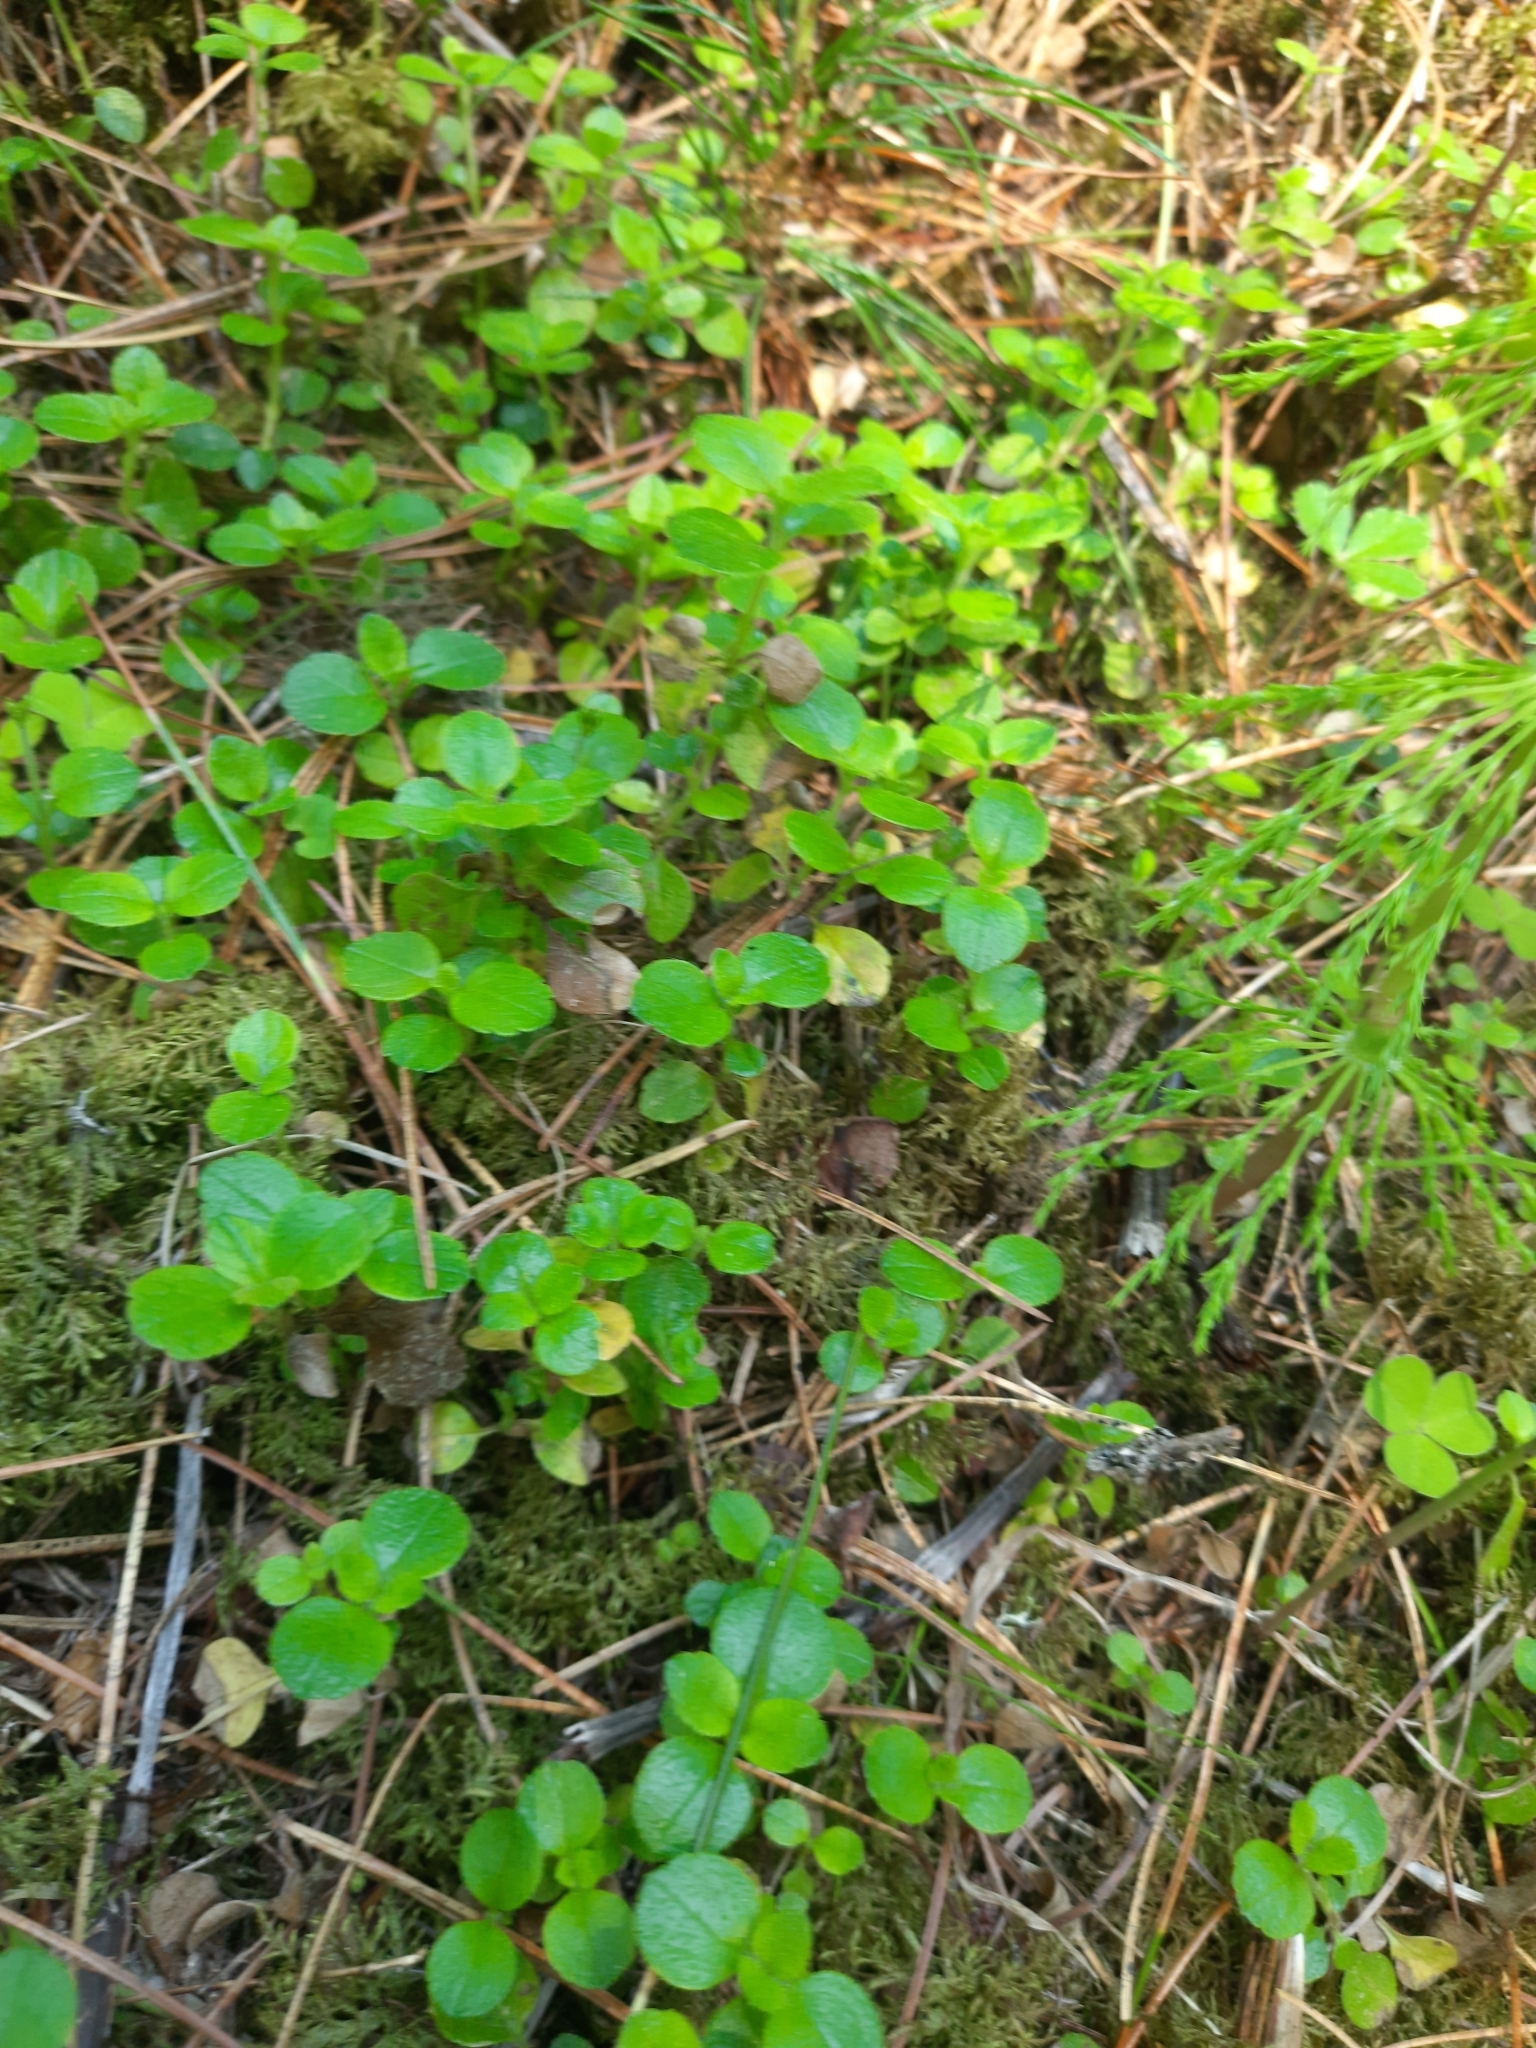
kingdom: Plantae
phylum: Tracheophyta
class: Magnoliopsida
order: Dipsacales
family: Caprifoliaceae
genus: Linnaea
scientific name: Linnaea borealis
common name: Twinflower
